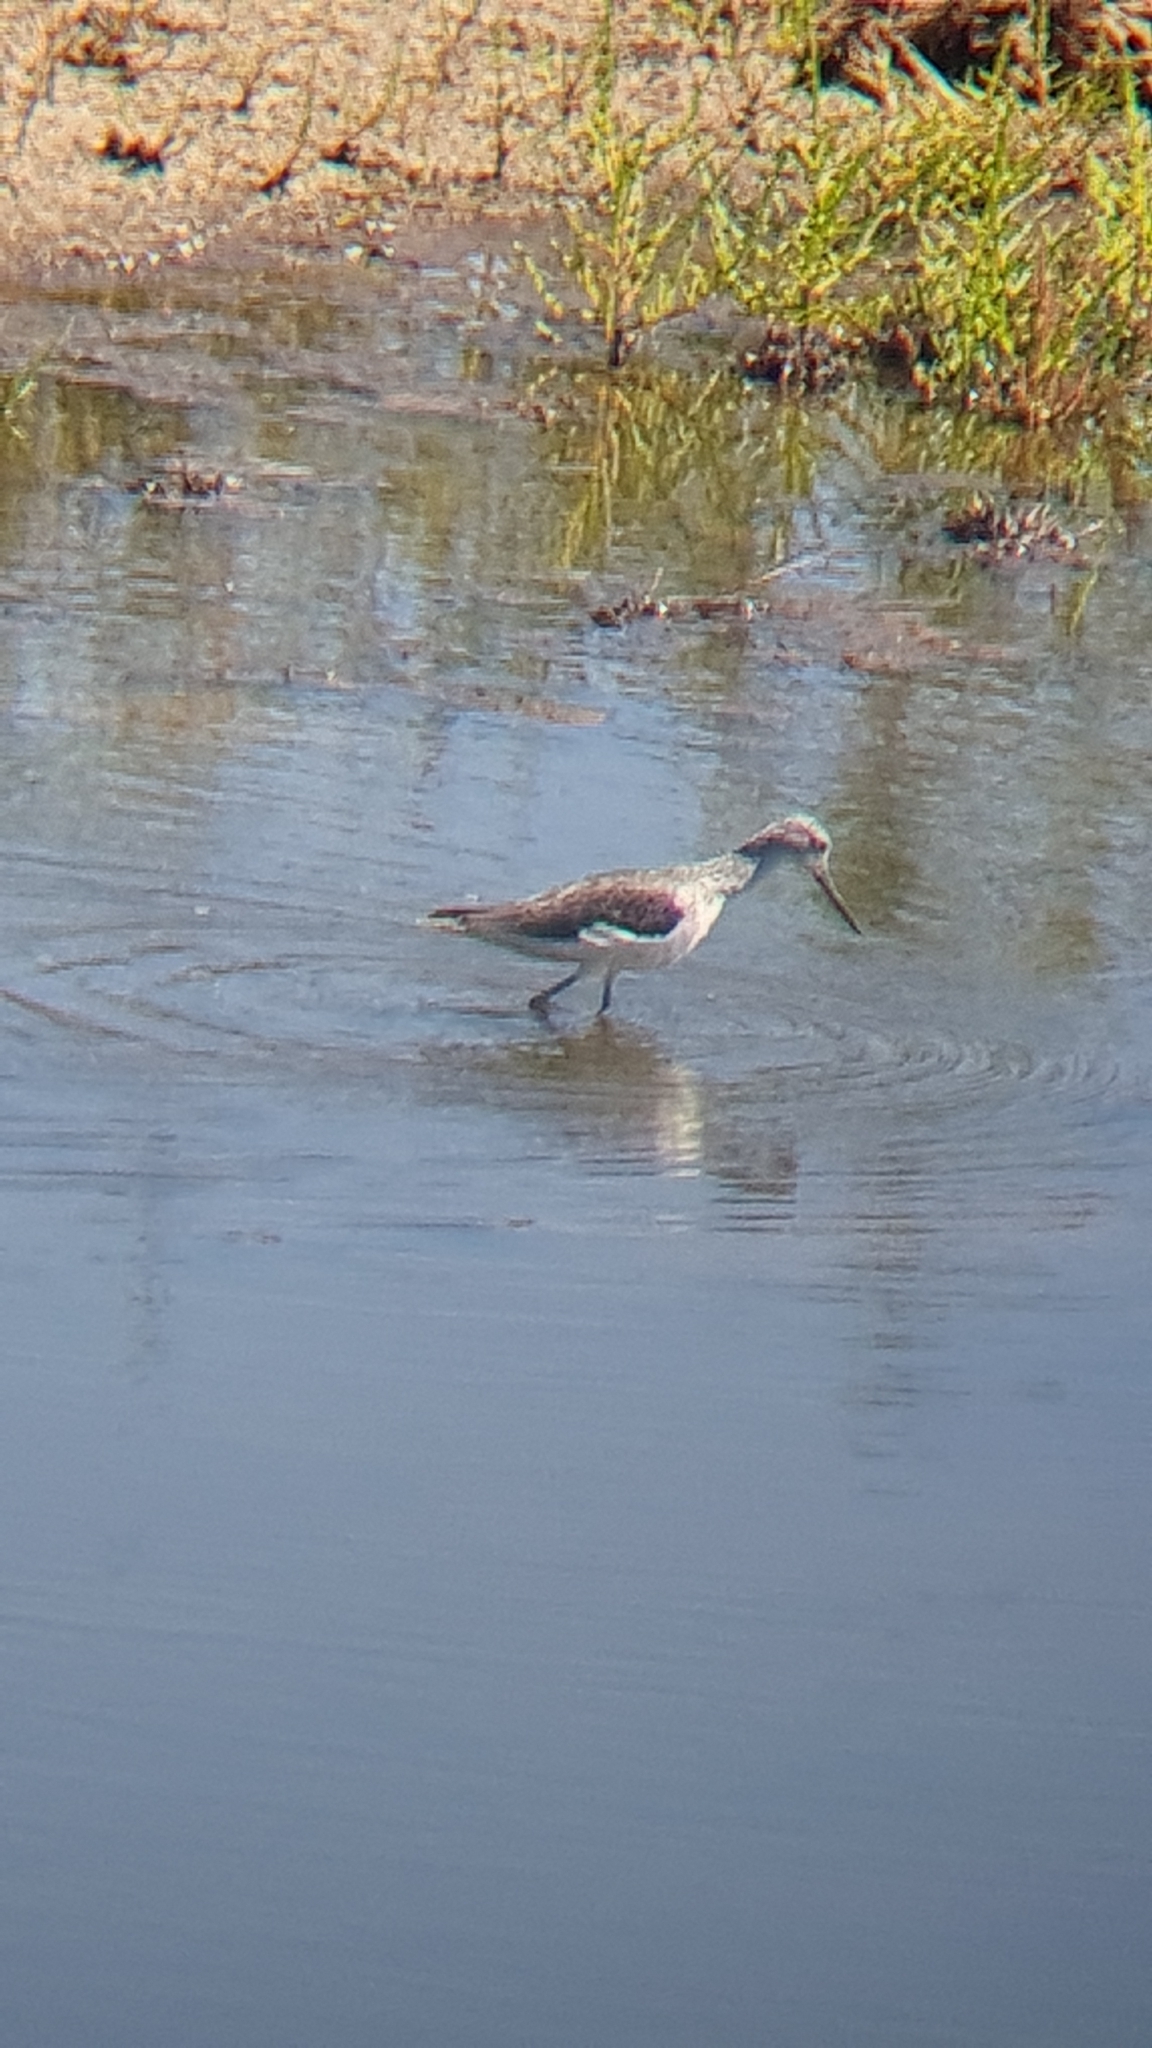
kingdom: Animalia
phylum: Chordata
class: Aves
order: Charadriiformes
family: Scolopacidae
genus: Tringa
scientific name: Tringa nebularia
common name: Common greenshank
